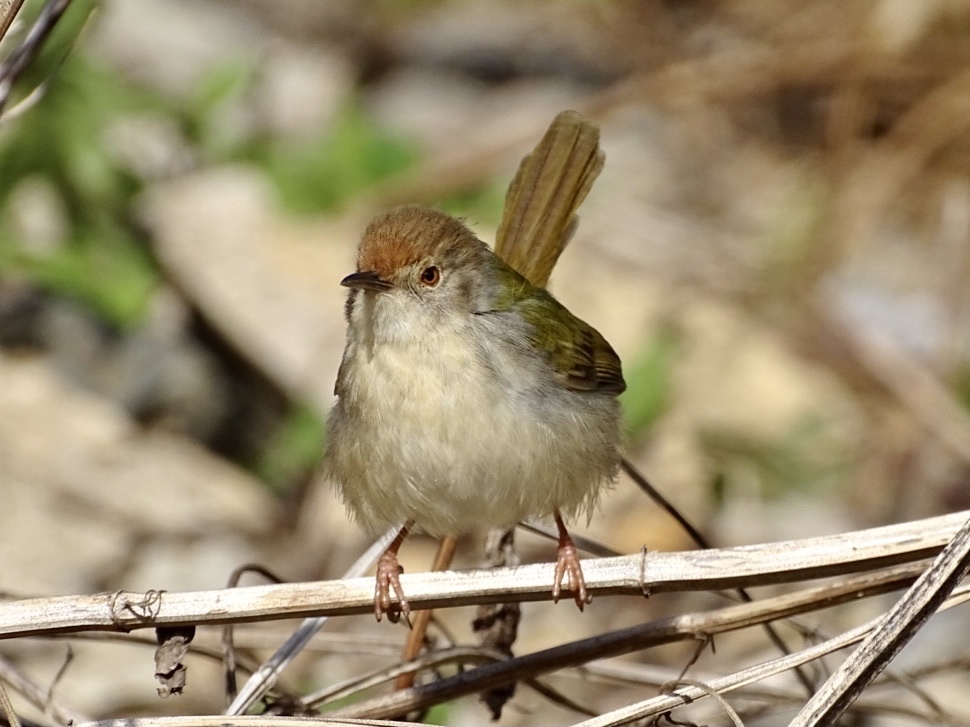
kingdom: Animalia
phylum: Chordata
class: Aves
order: Passeriformes
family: Cisticolidae
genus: Orthotomus
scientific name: Orthotomus sutorius
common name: Common tailorbird
